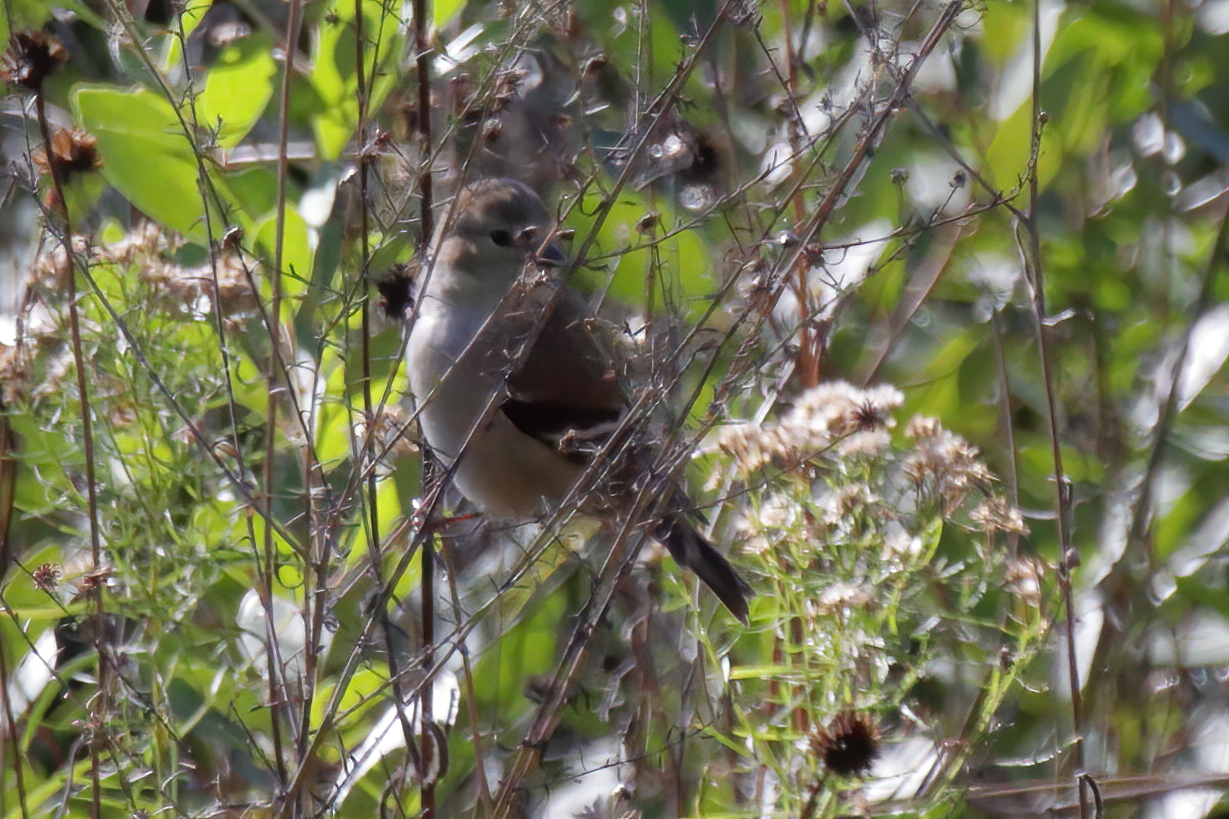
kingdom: Animalia
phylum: Chordata
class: Aves
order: Passeriformes
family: Fringillidae
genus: Spinus
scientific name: Spinus tristis
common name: American goldfinch
